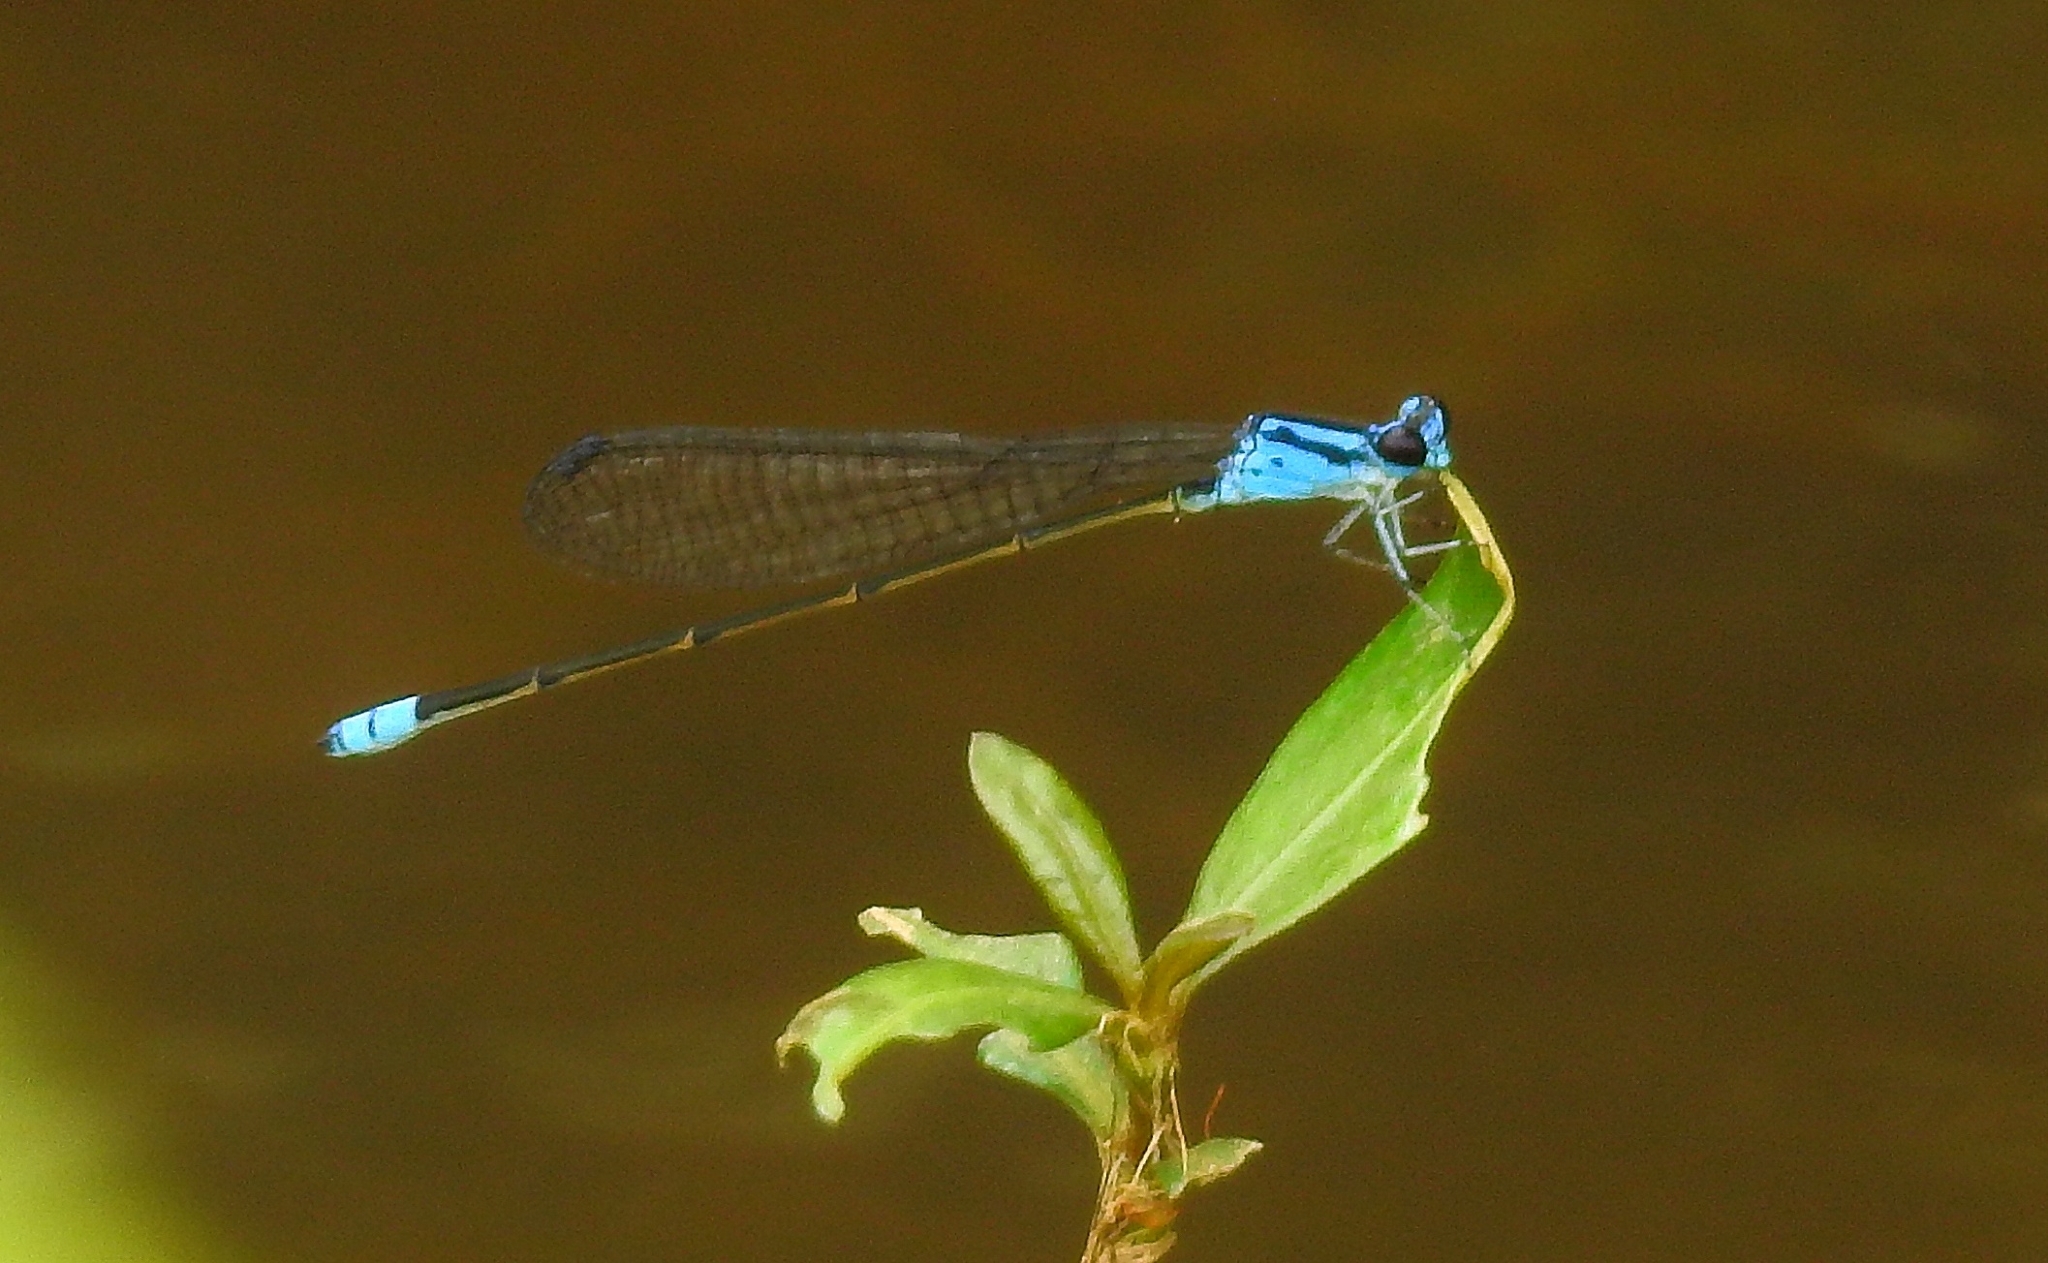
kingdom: Animalia
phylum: Arthropoda
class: Insecta
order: Odonata
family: Coenagrionidae
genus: Archibasis
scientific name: Archibasis oscillans
